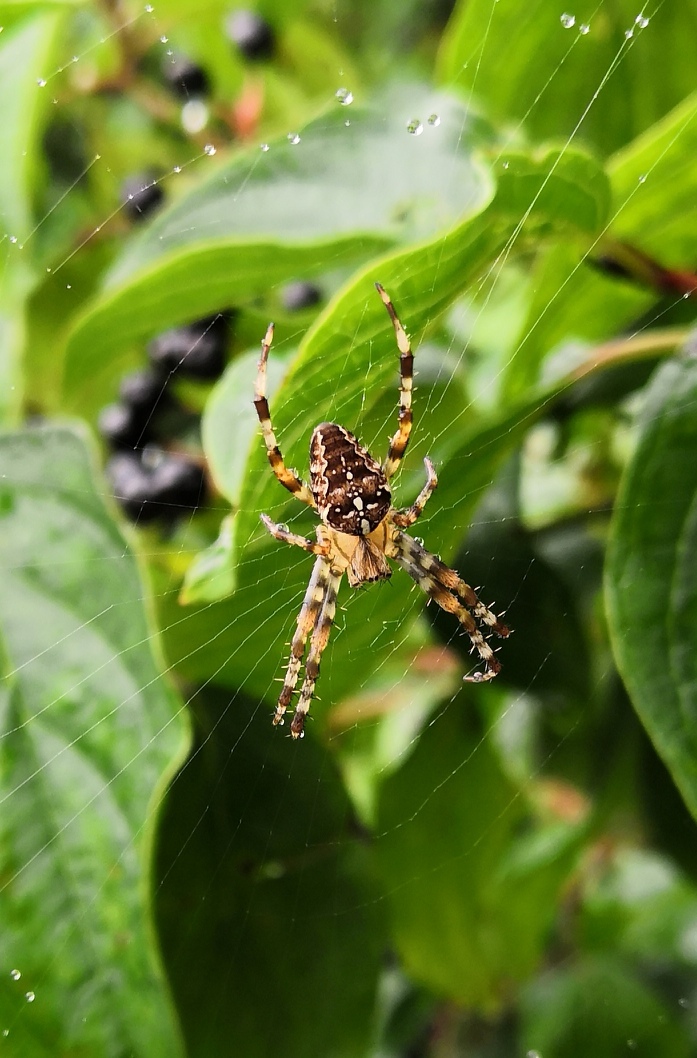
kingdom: Animalia
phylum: Arthropoda
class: Arachnida
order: Araneae
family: Araneidae
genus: Araneus
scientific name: Araneus diadematus
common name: Cross orbweaver
